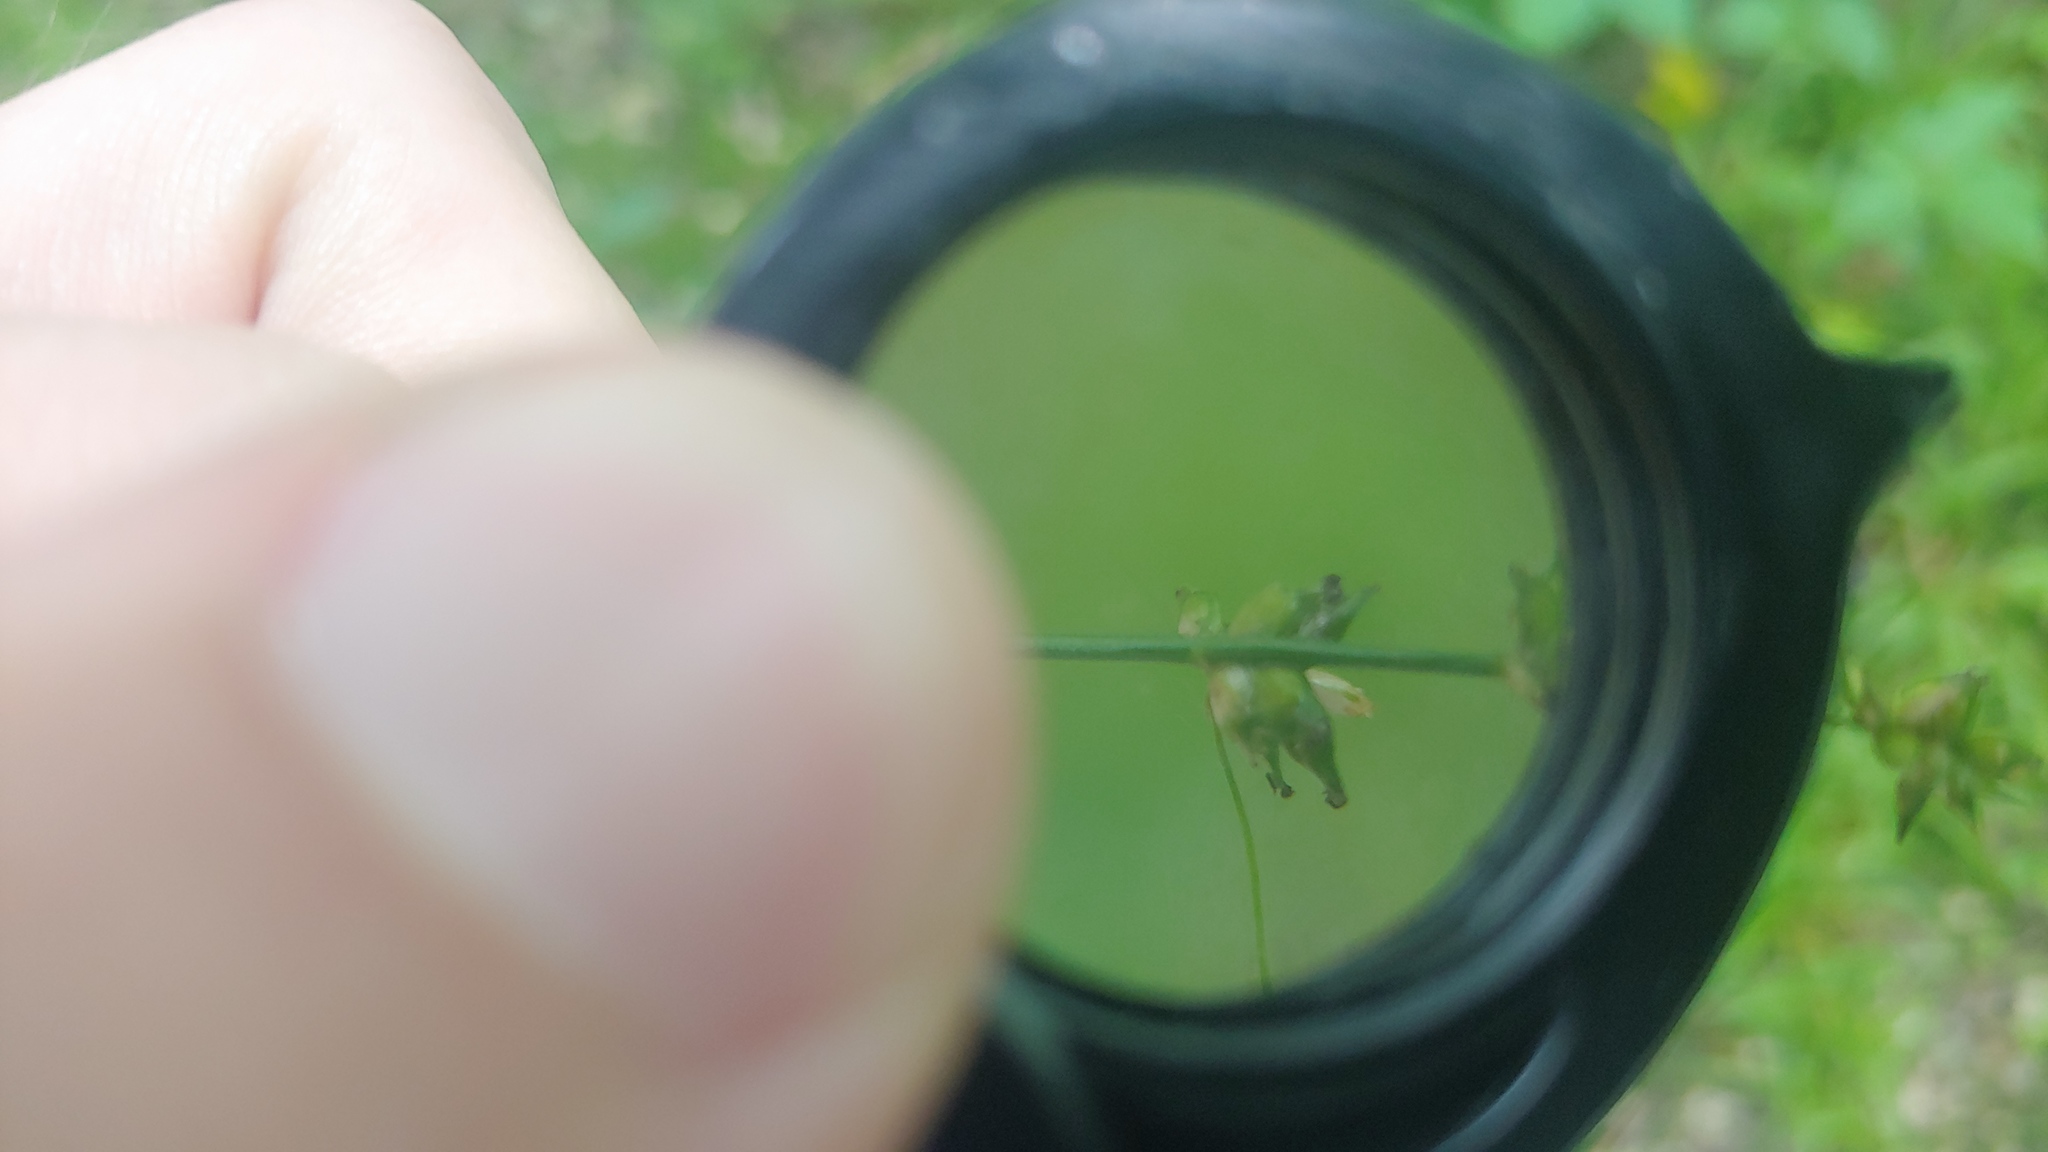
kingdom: Plantae
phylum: Tracheophyta
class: Liliopsida
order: Poales
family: Cyperaceae
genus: Carex
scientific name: Carex rosea
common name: Curly-styled wood sedge
